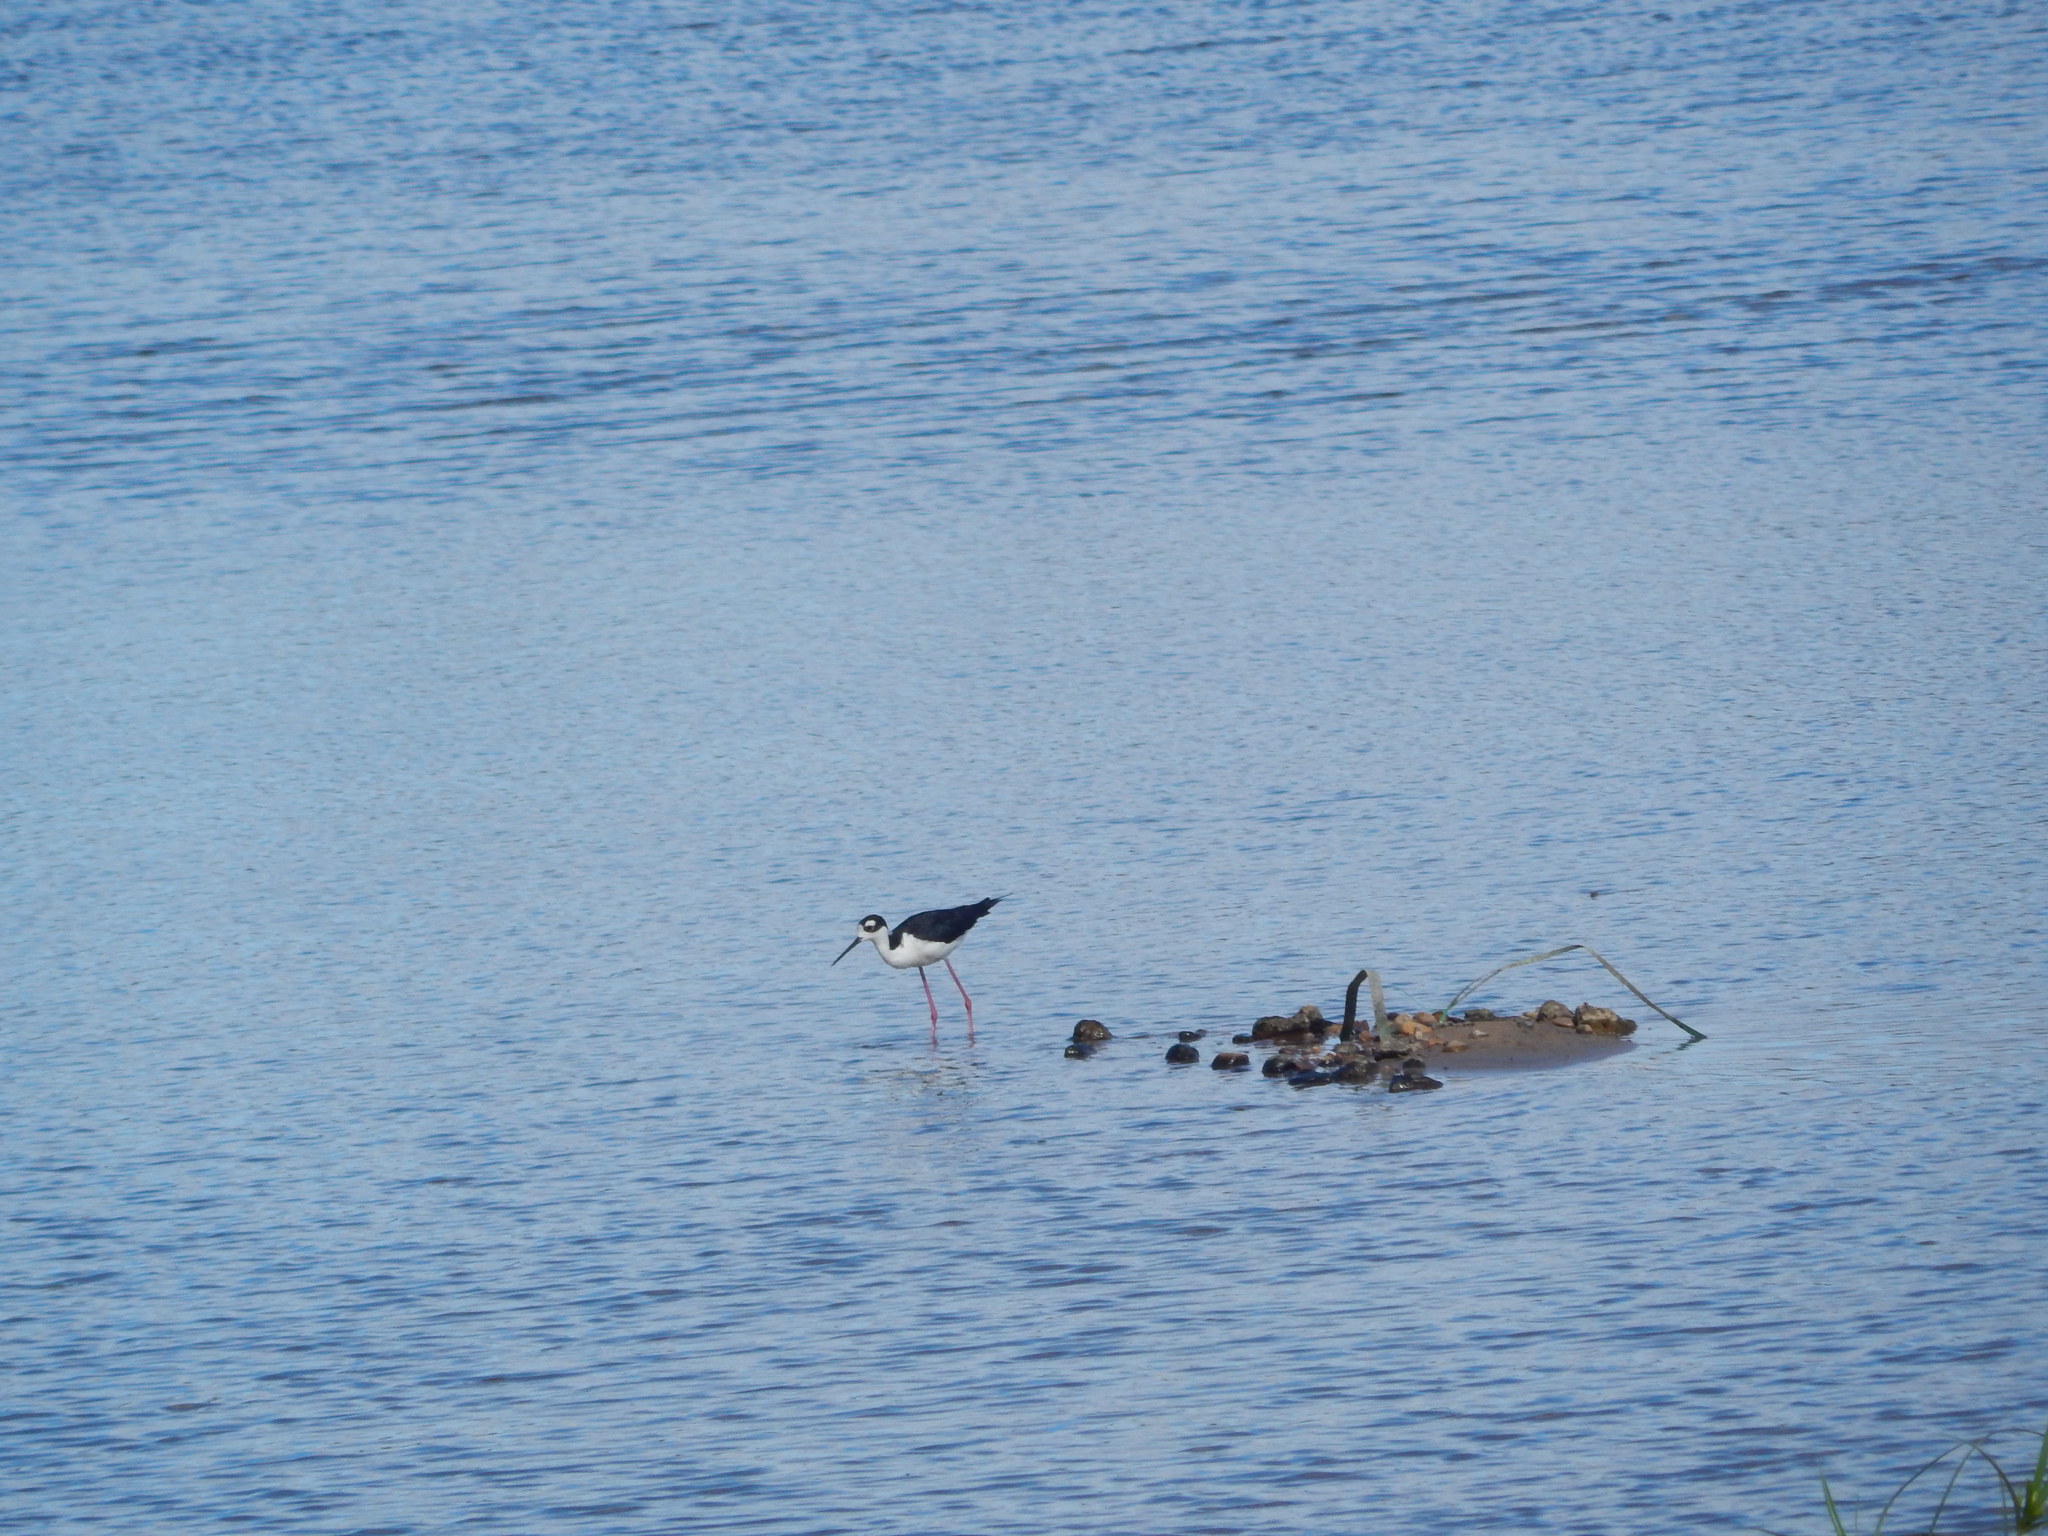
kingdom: Animalia
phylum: Chordata
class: Aves
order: Charadriiformes
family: Recurvirostridae
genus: Himantopus
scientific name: Himantopus mexicanus
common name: Black-necked stilt
